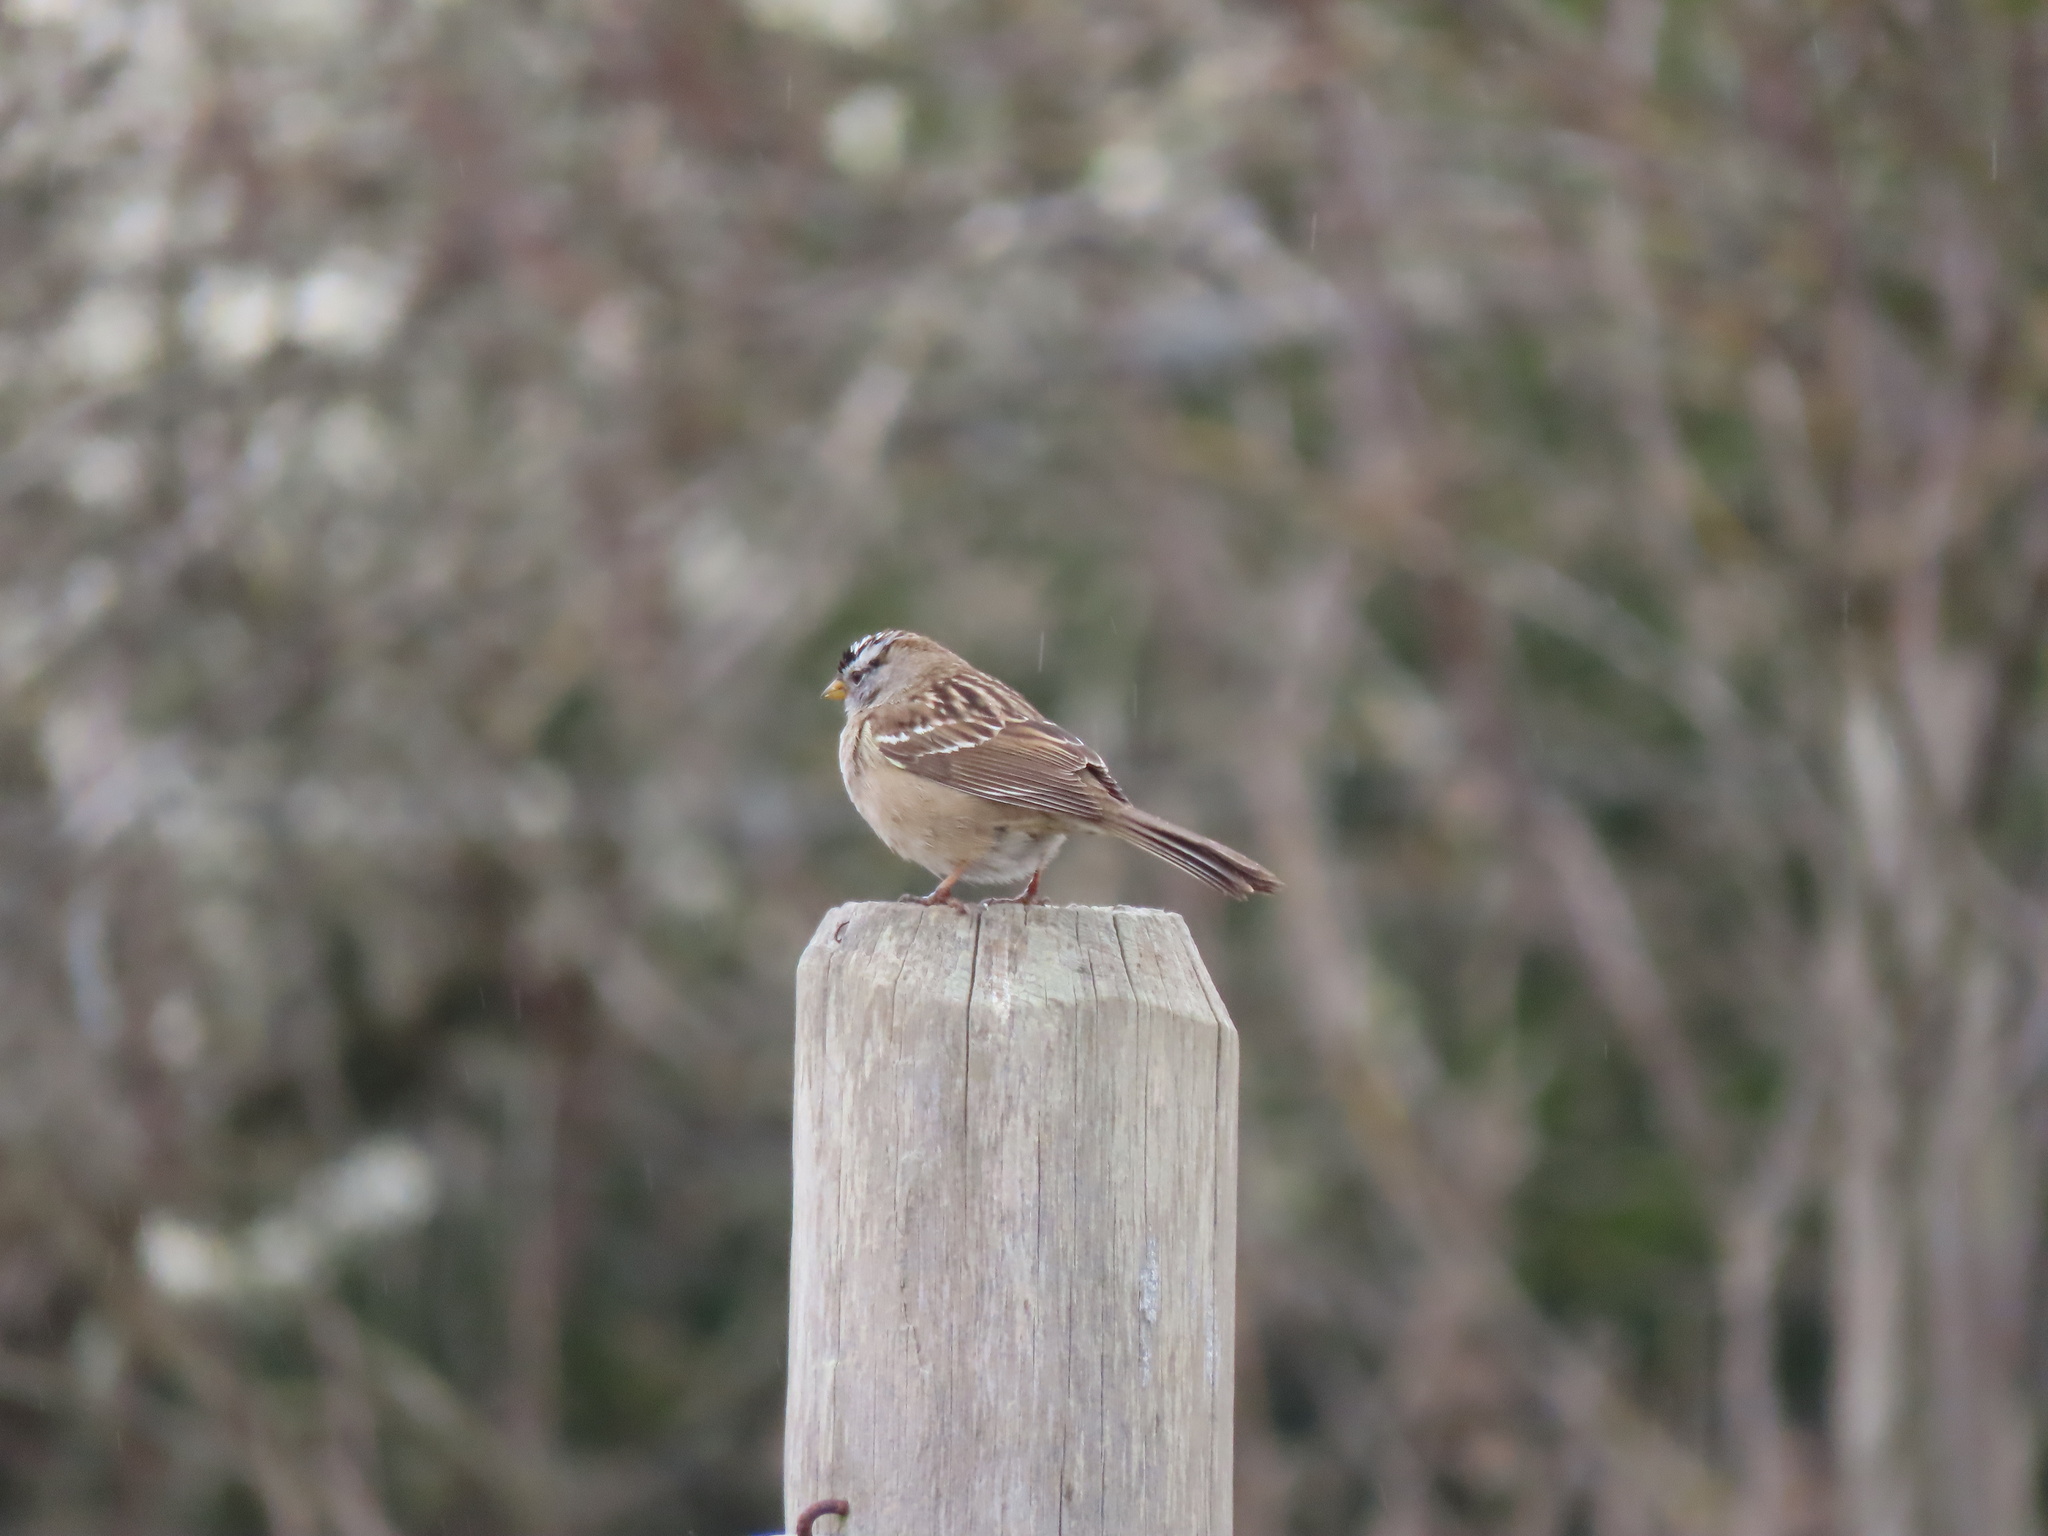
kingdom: Animalia
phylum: Chordata
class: Aves
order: Passeriformes
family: Passerellidae
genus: Zonotrichia
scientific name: Zonotrichia leucophrys
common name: White-crowned sparrow
